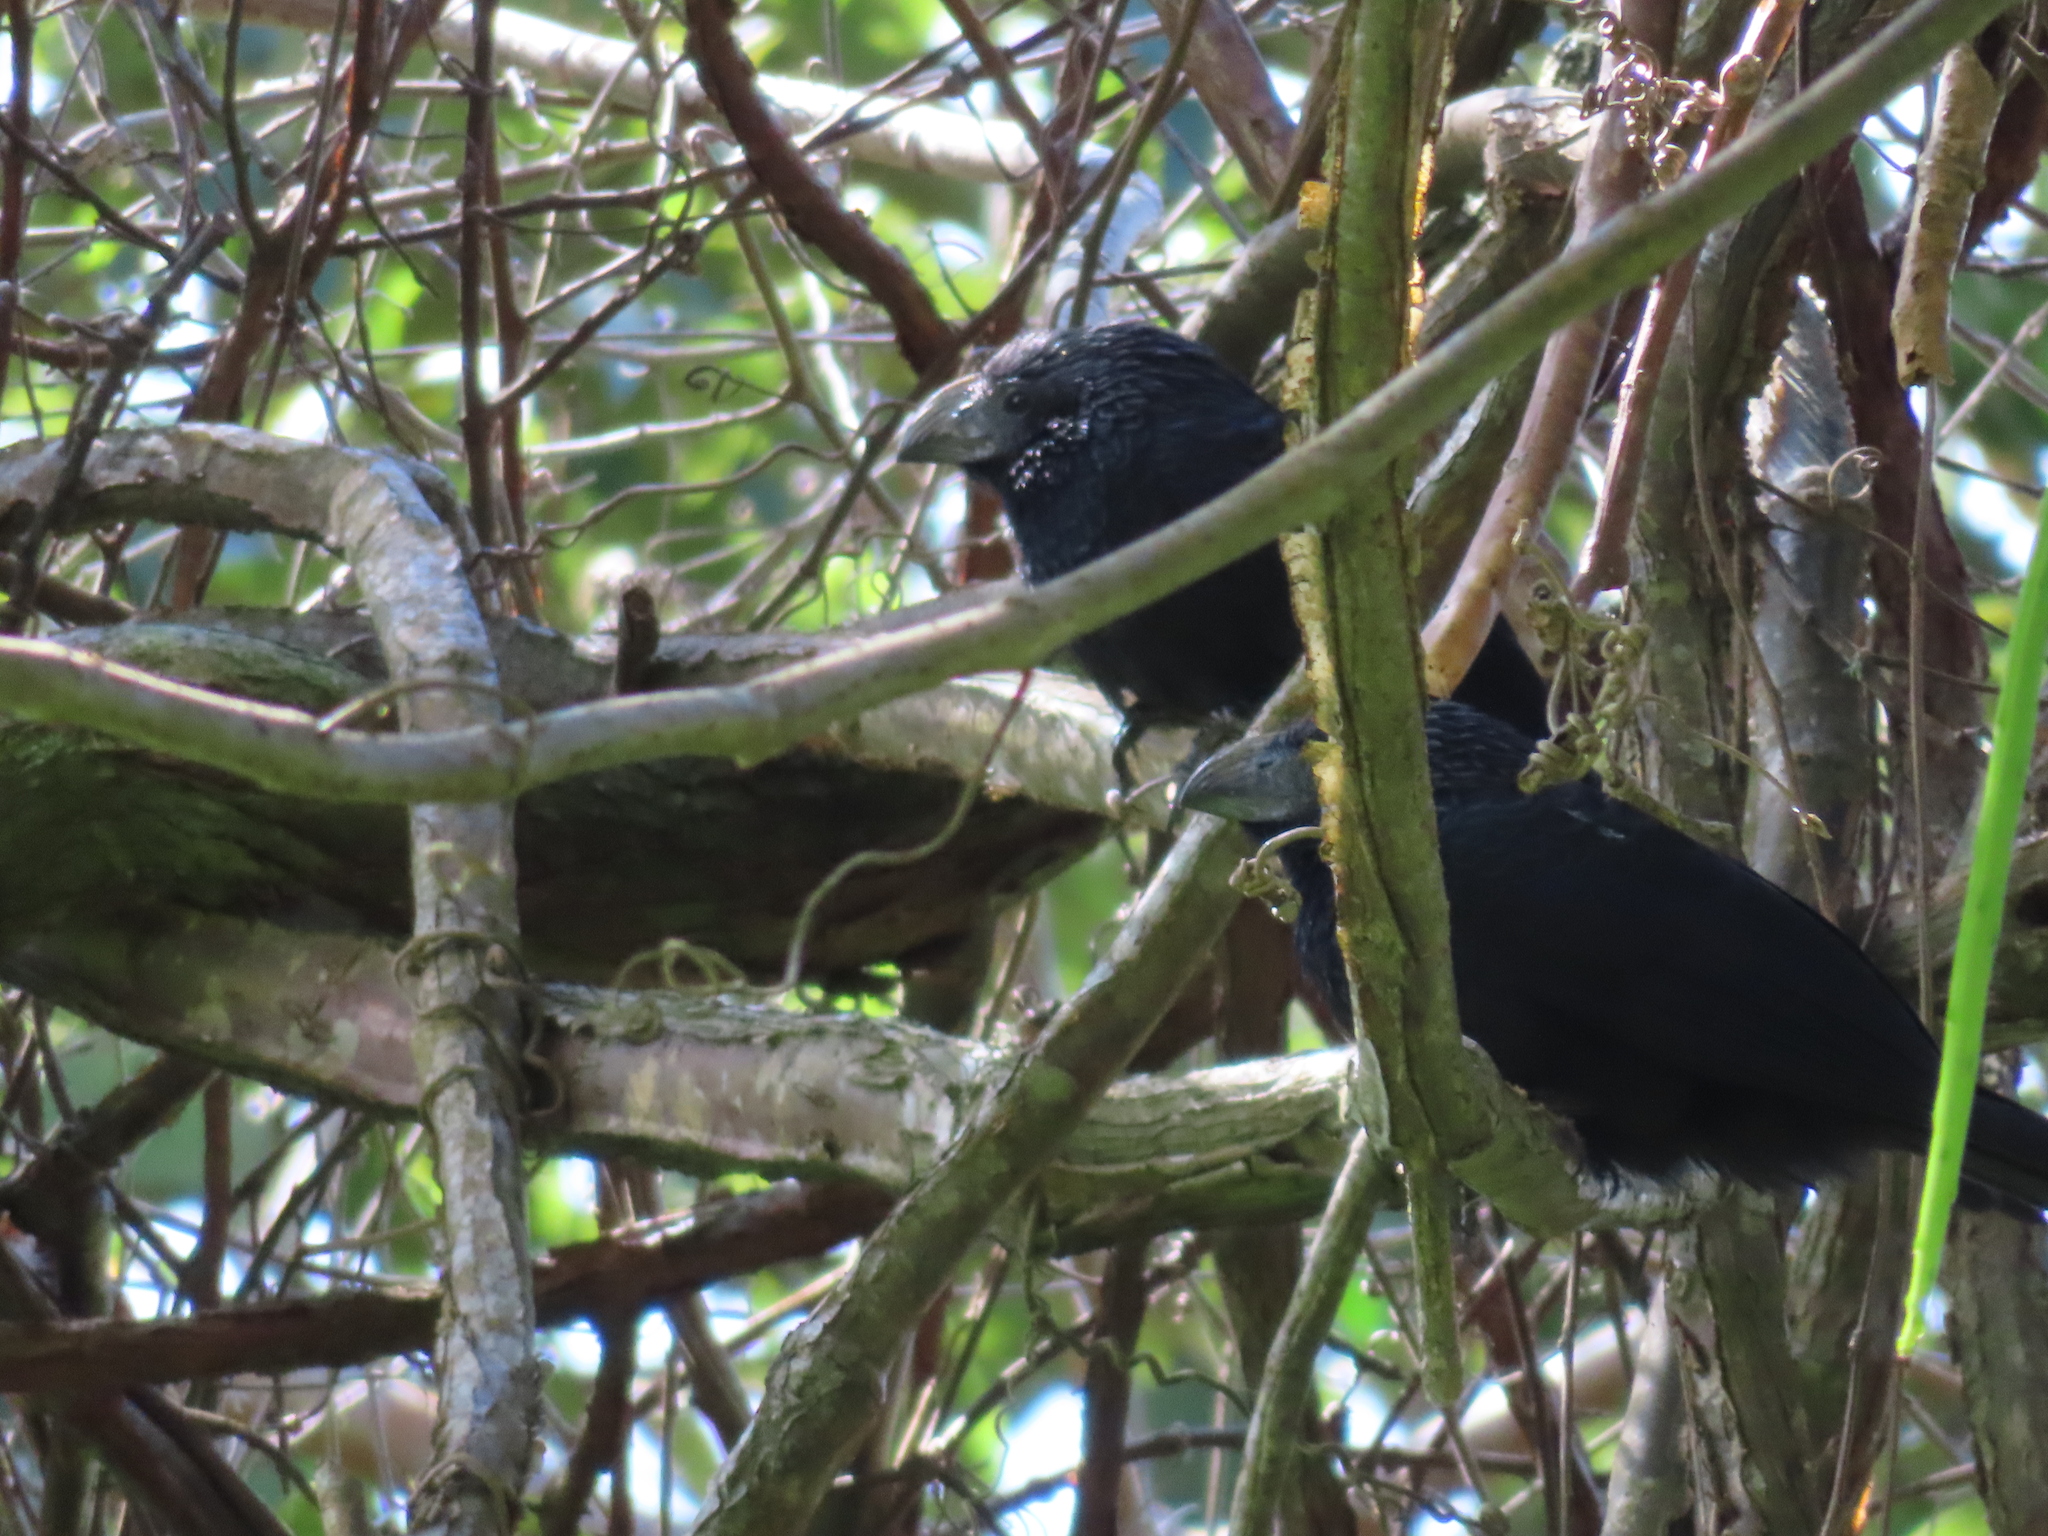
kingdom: Animalia
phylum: Chordata
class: Aves
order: Cuculiformes
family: Cuculidae
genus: Crotophaga
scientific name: Crotophaga sulcirostris
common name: Groove-billed ani
